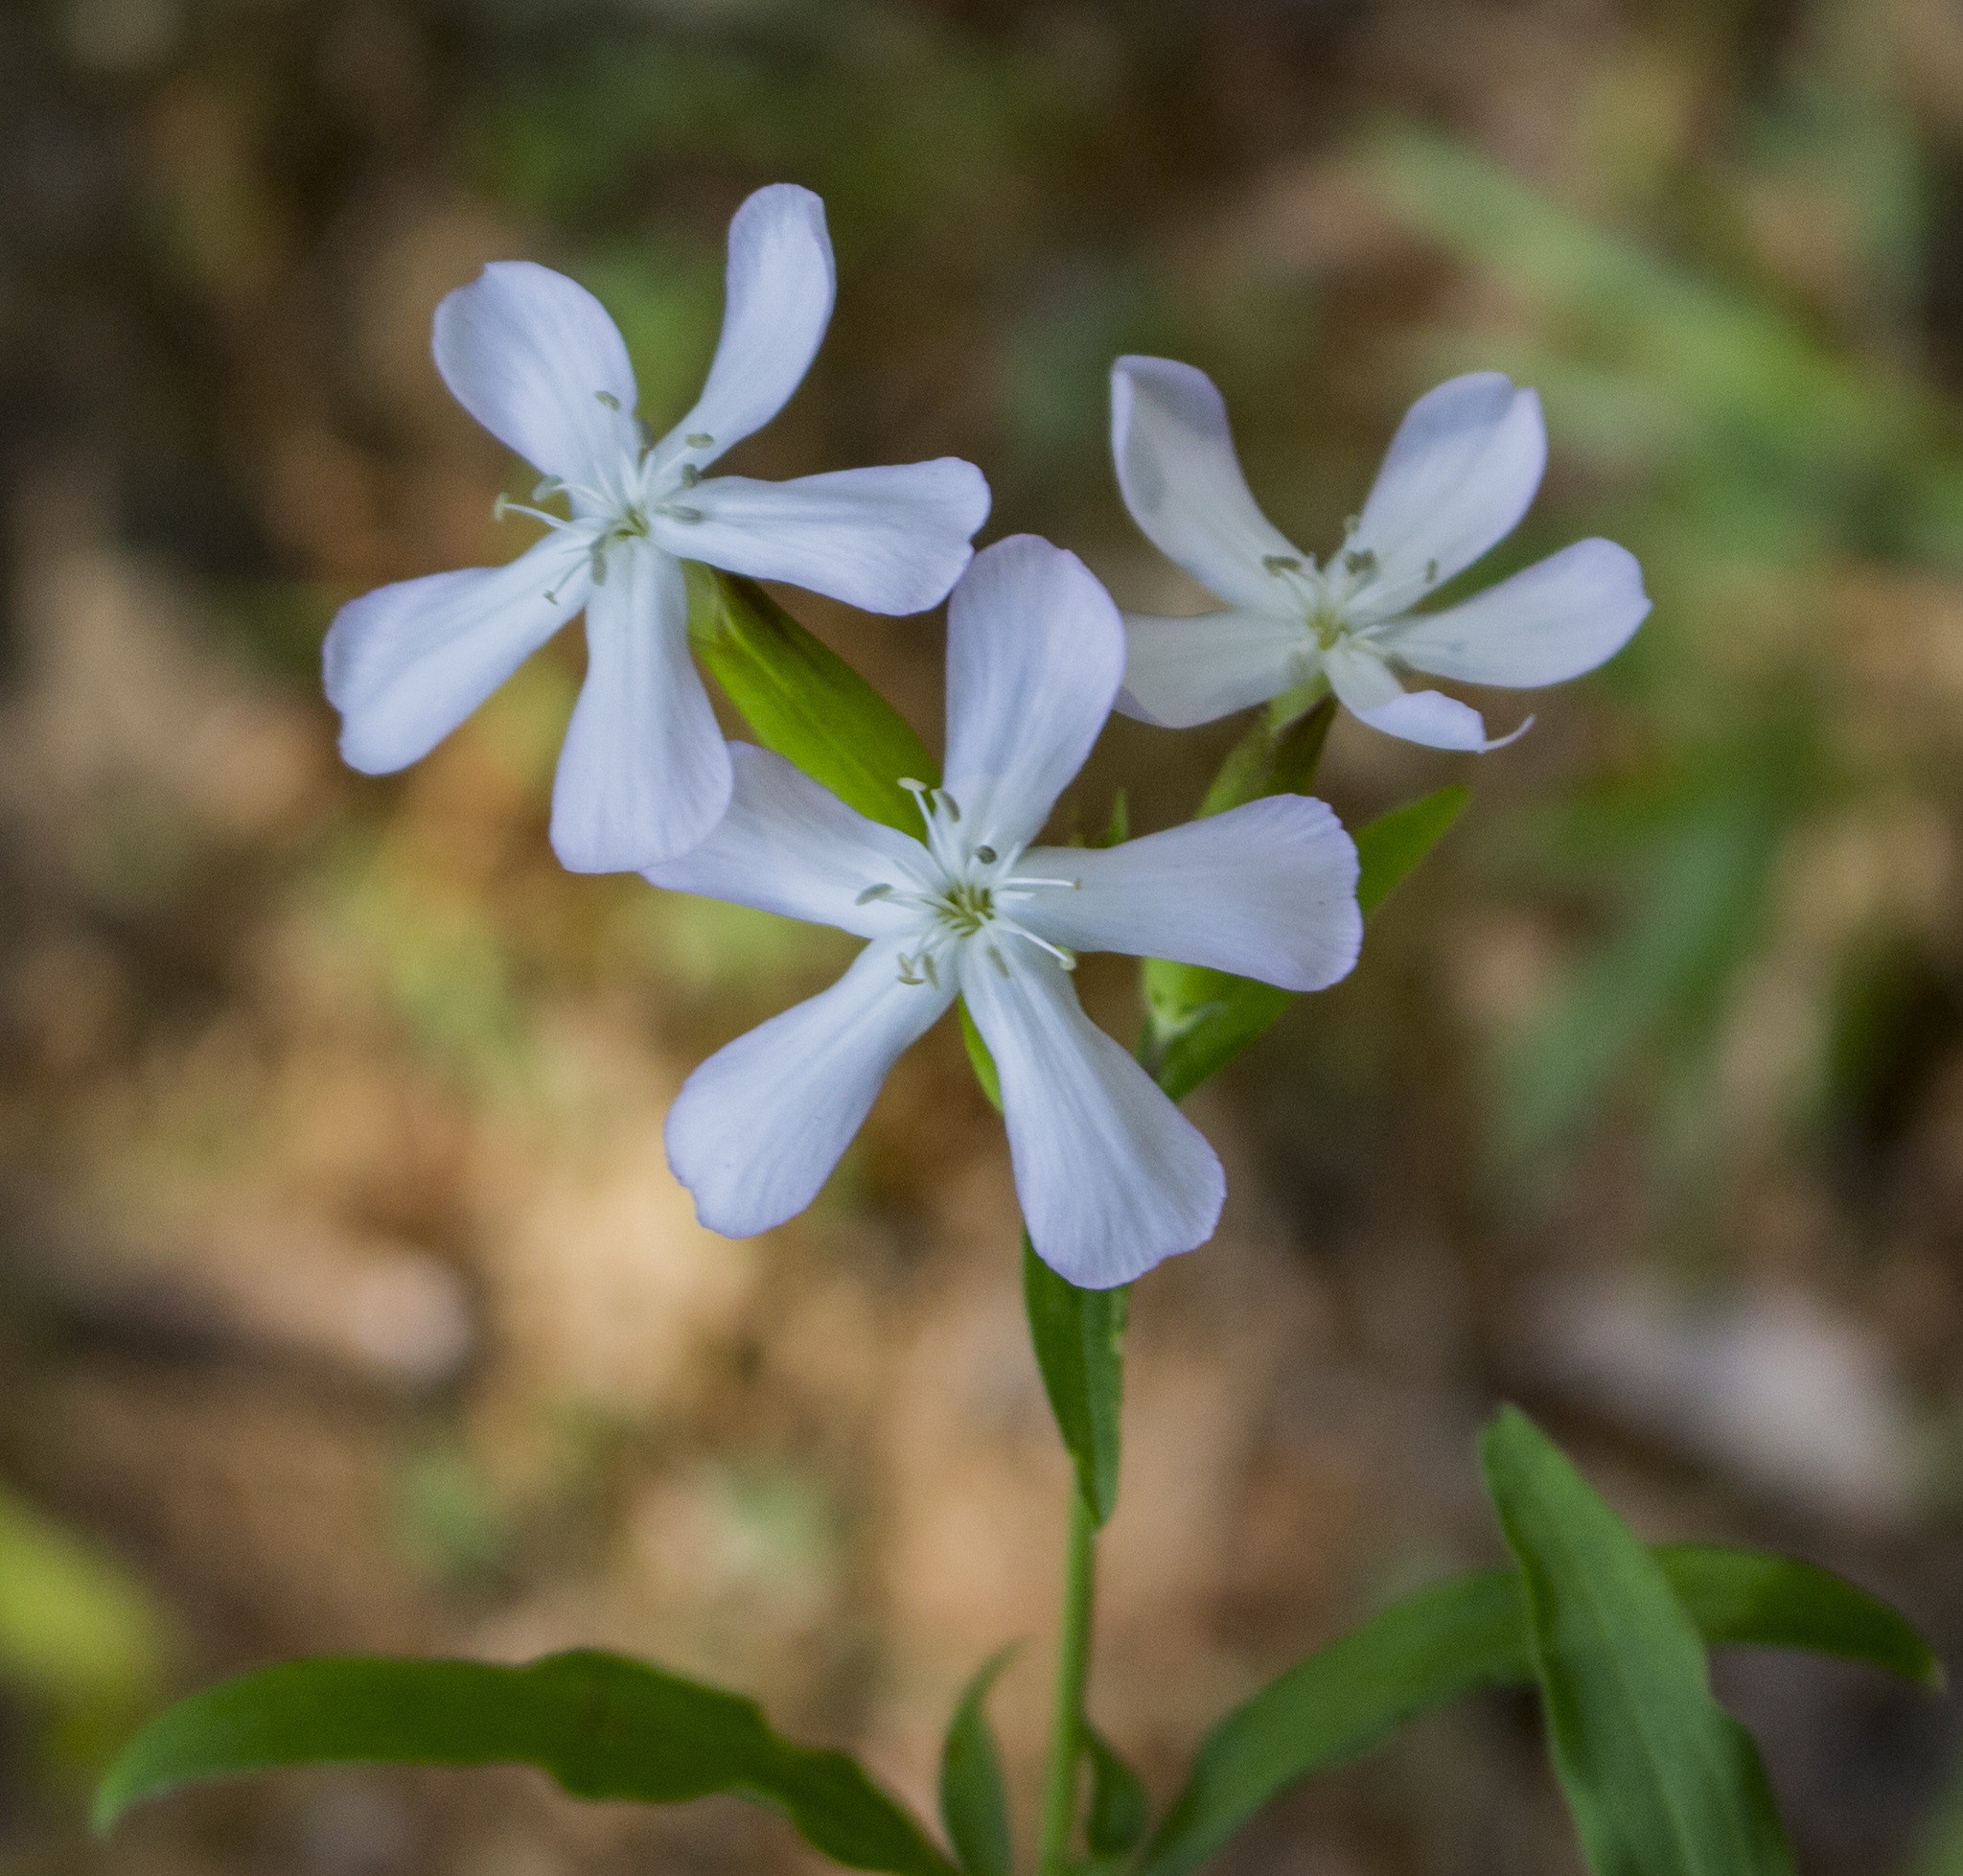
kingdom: Plantae
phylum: Tracheophyta
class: Magnoliopsida
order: Caryophyllales
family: Caryophyllaceae
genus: Saponaria
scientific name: Saponaria officinalis
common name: Soapwort
